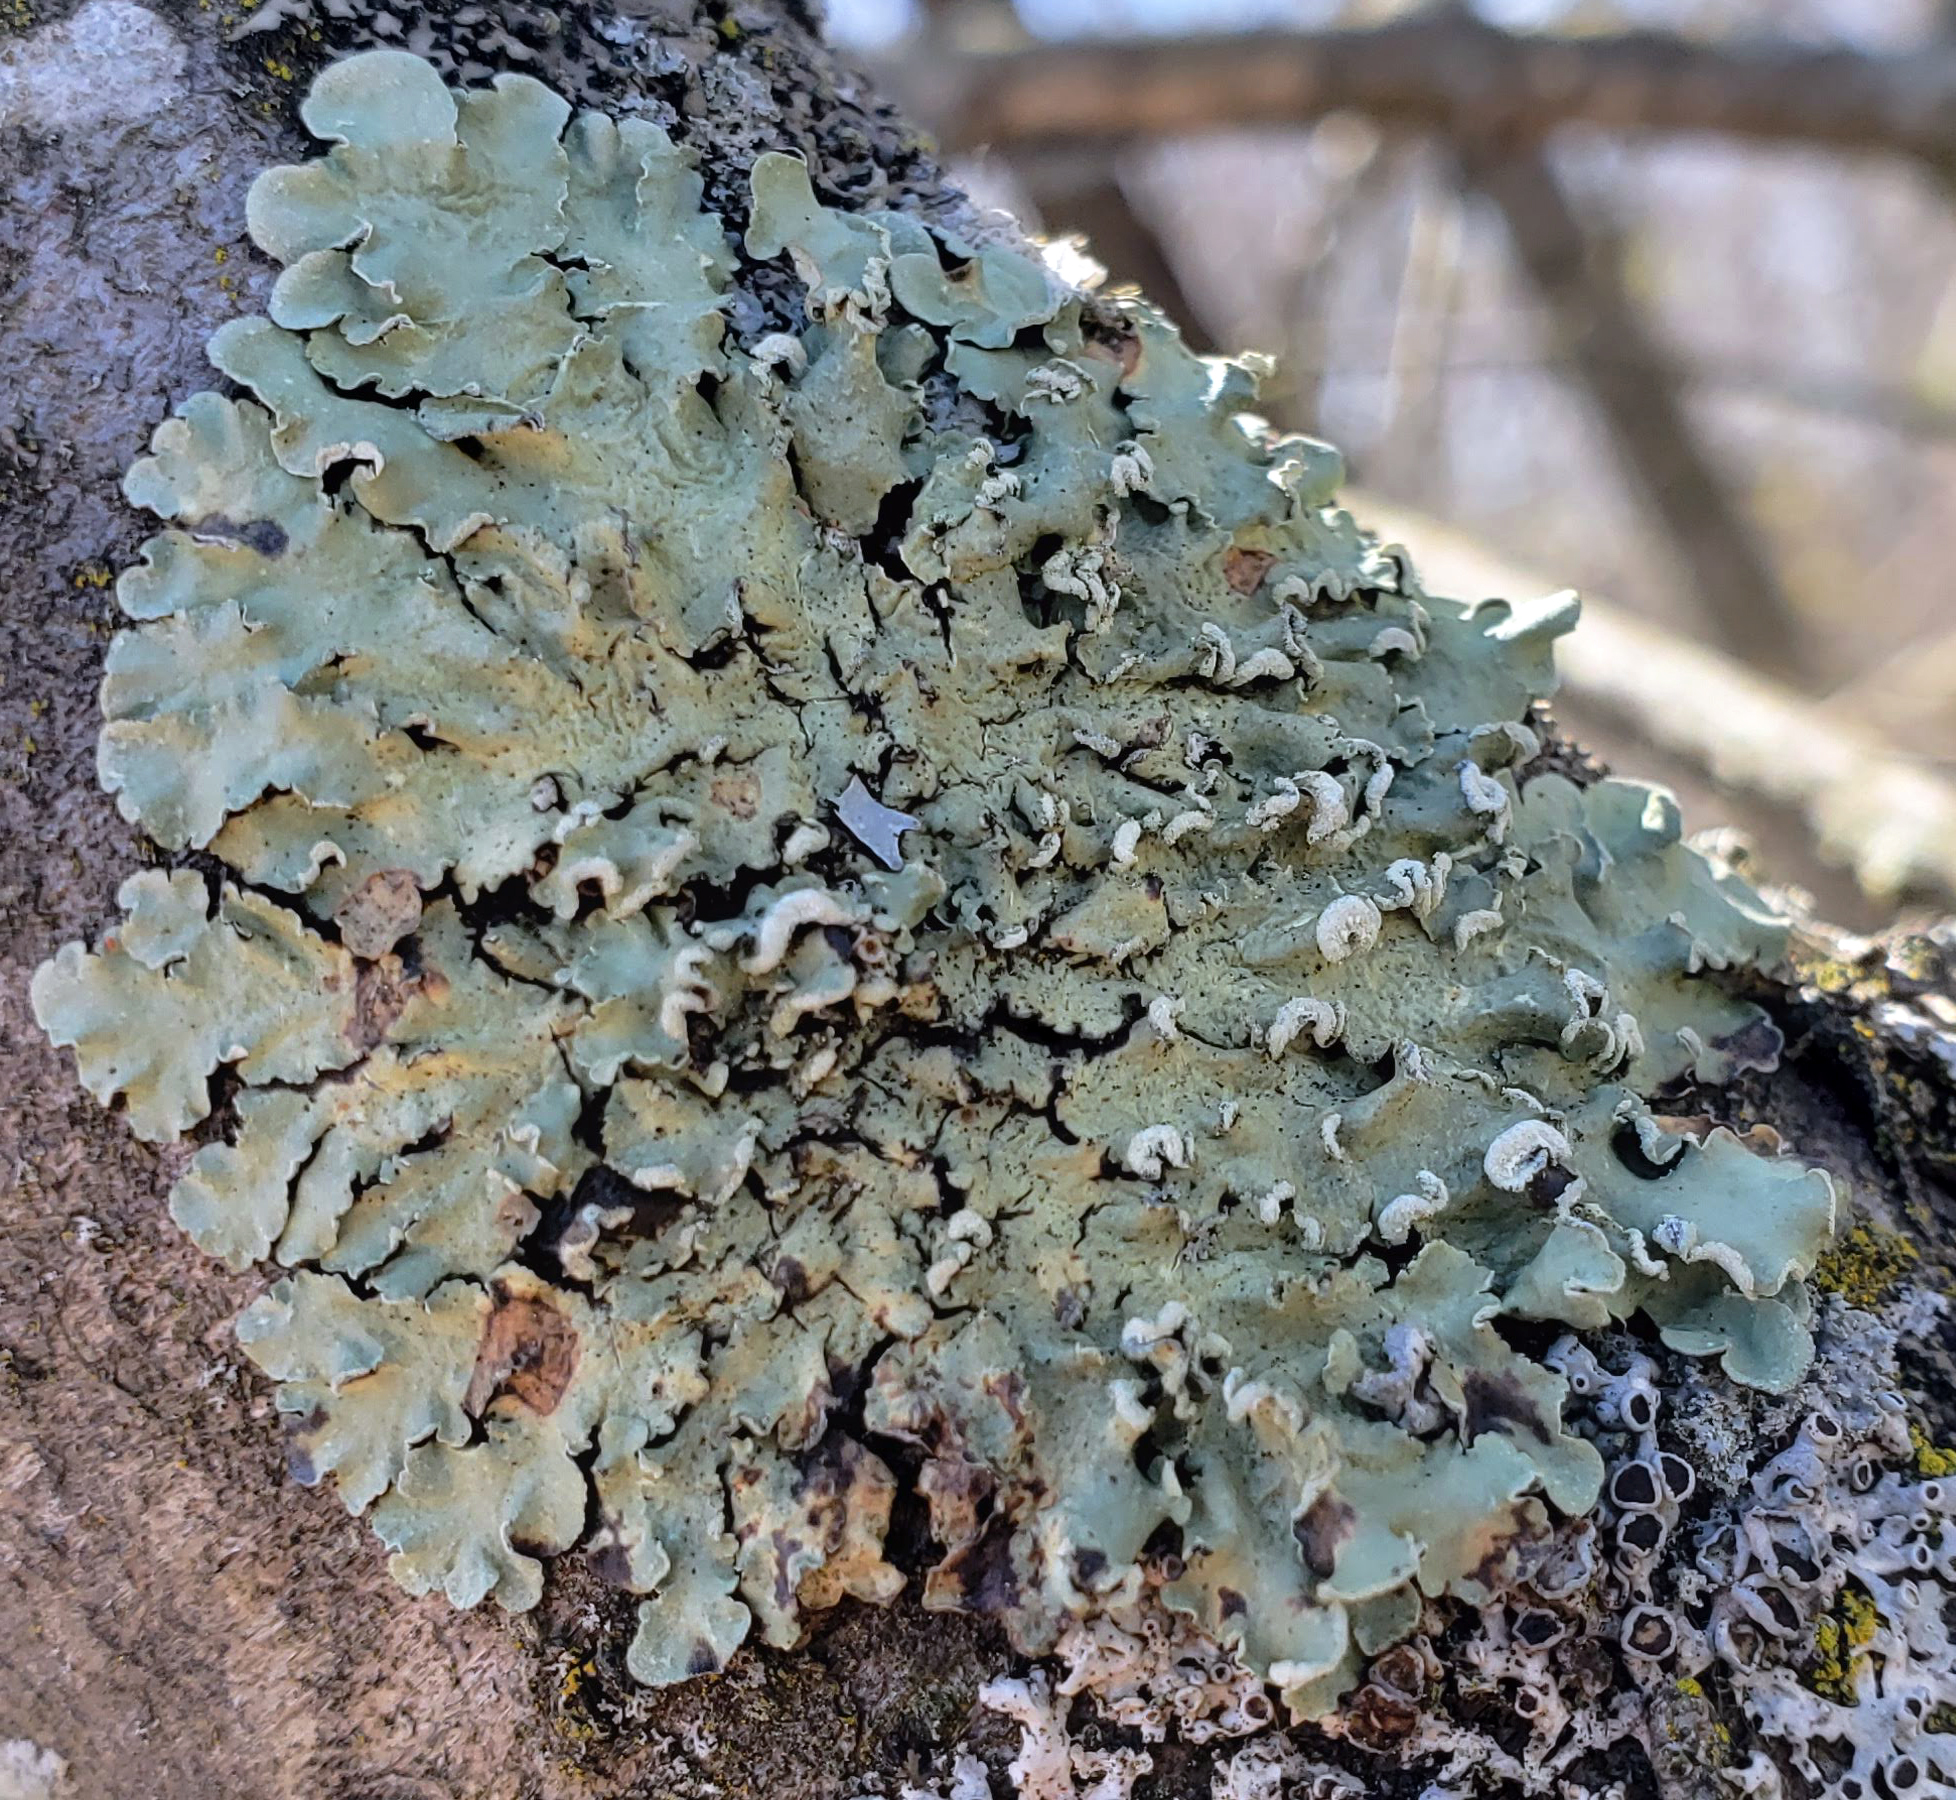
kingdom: Fungi
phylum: Ascomycota
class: Lecanoromycetes
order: Lecanorales
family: Parmeliaceae
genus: Flavopunctelia
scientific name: Flavopunctelia soredica
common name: Powder-edged speckled greenshield
